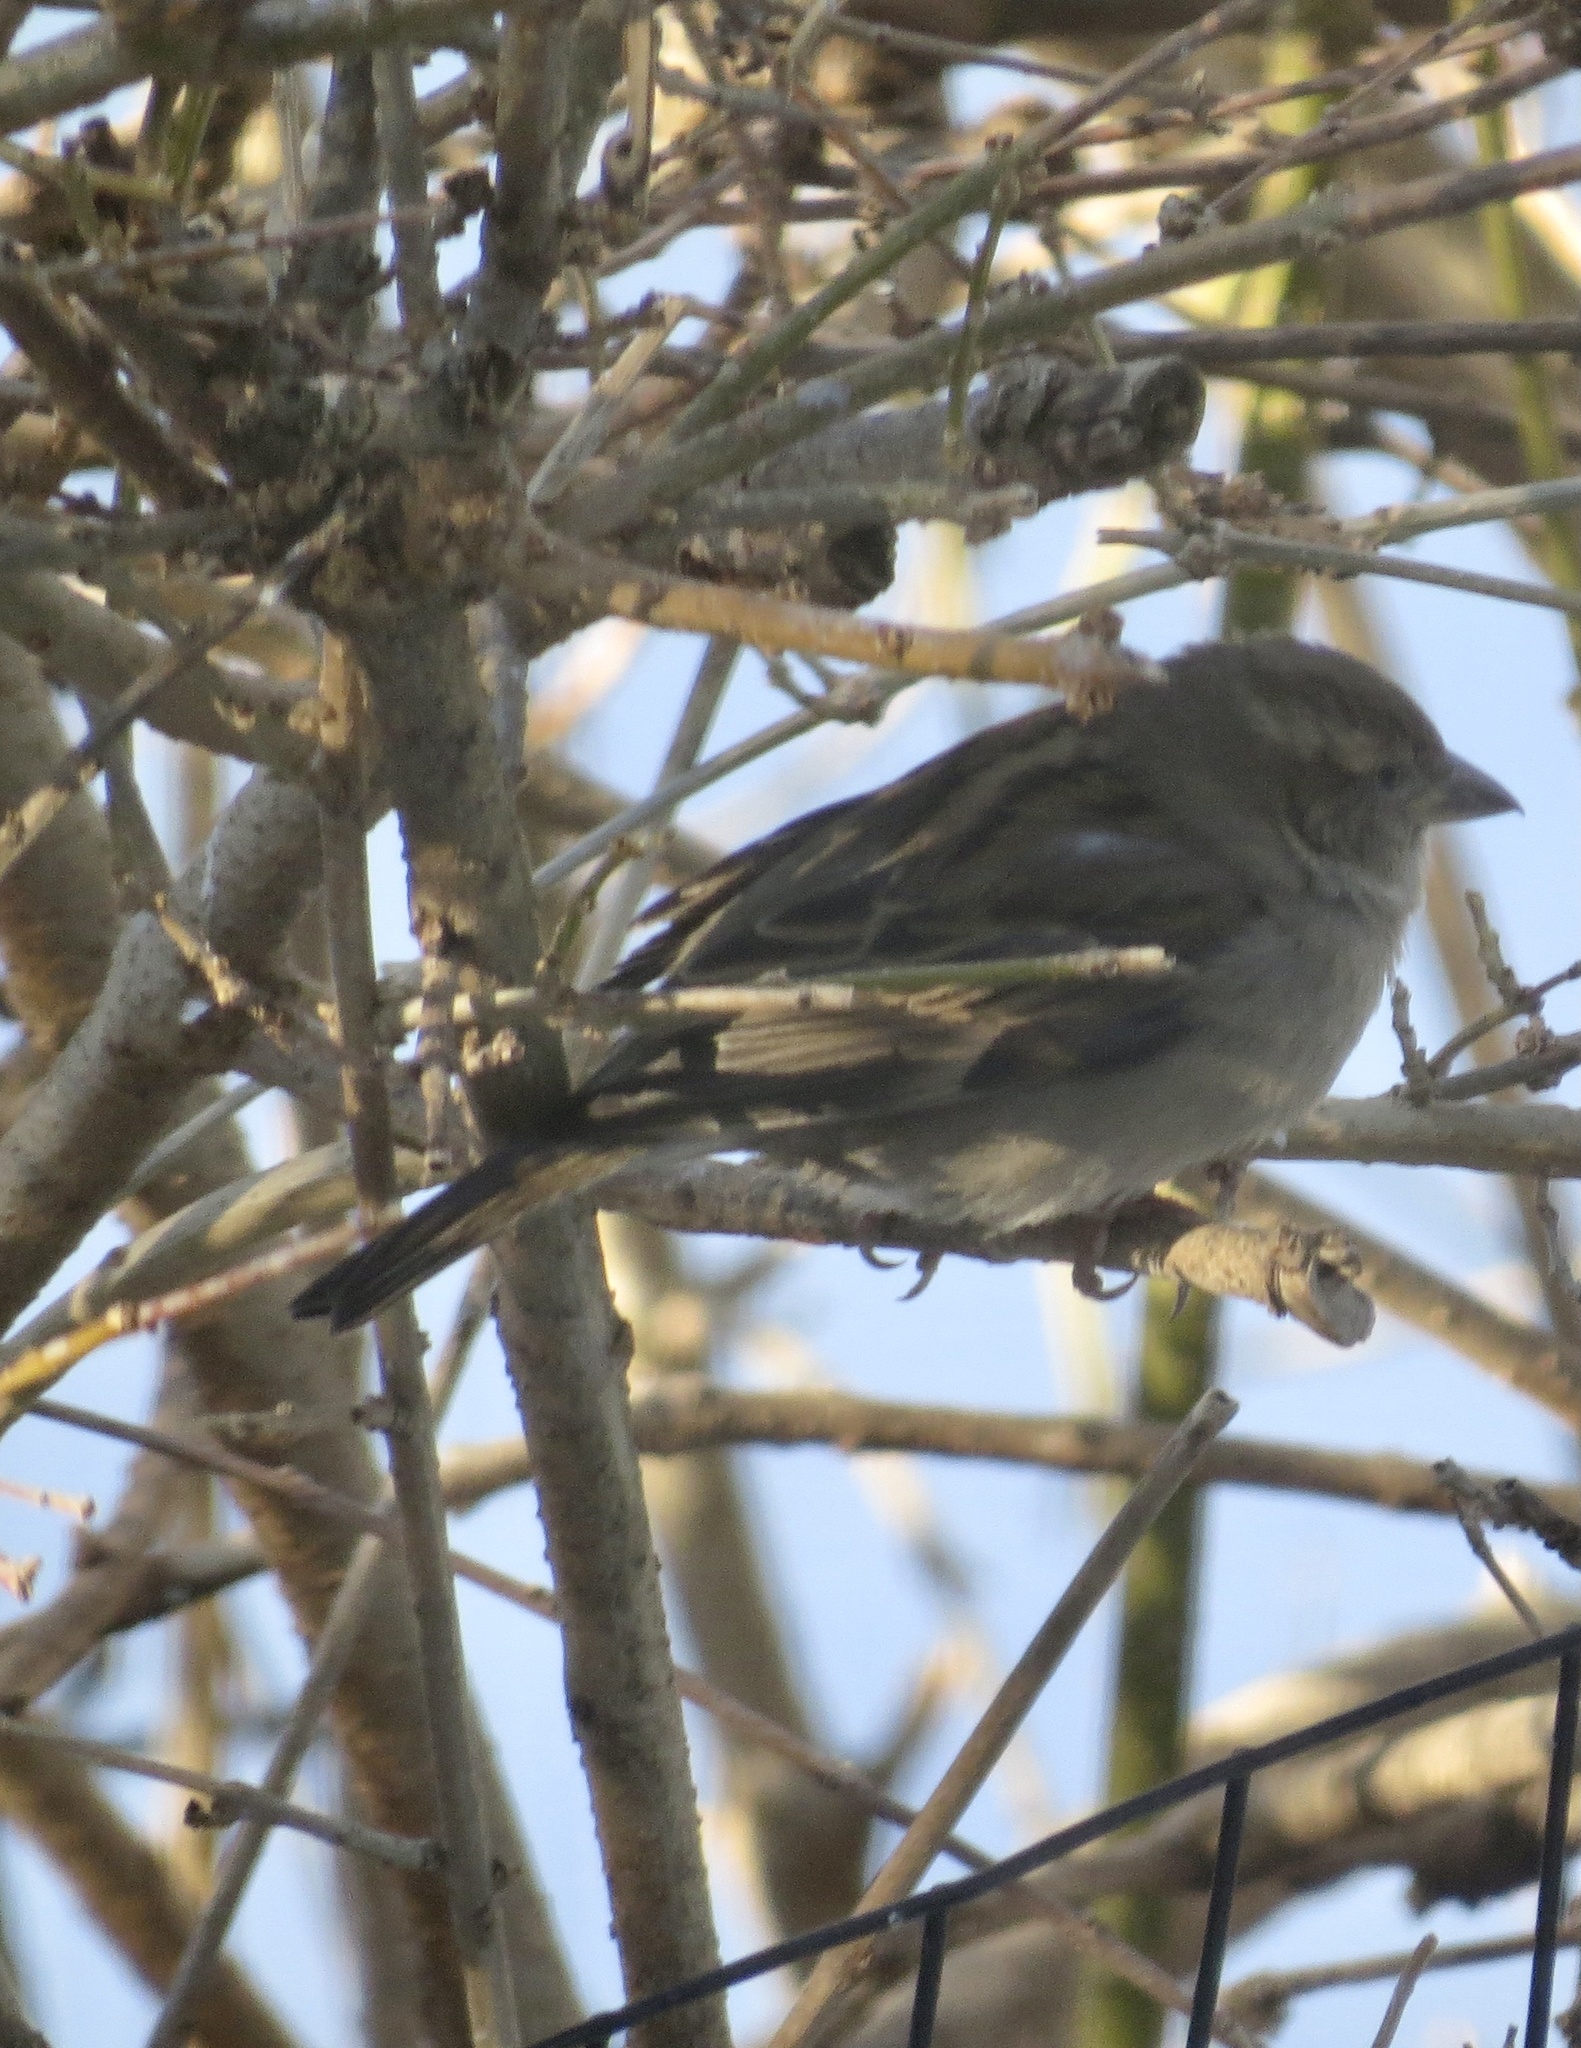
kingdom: Animalia
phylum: Chordata
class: Aves
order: Passeriformes
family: Passeridae
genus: Passer
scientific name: Passer domesticus
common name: House sparrow
